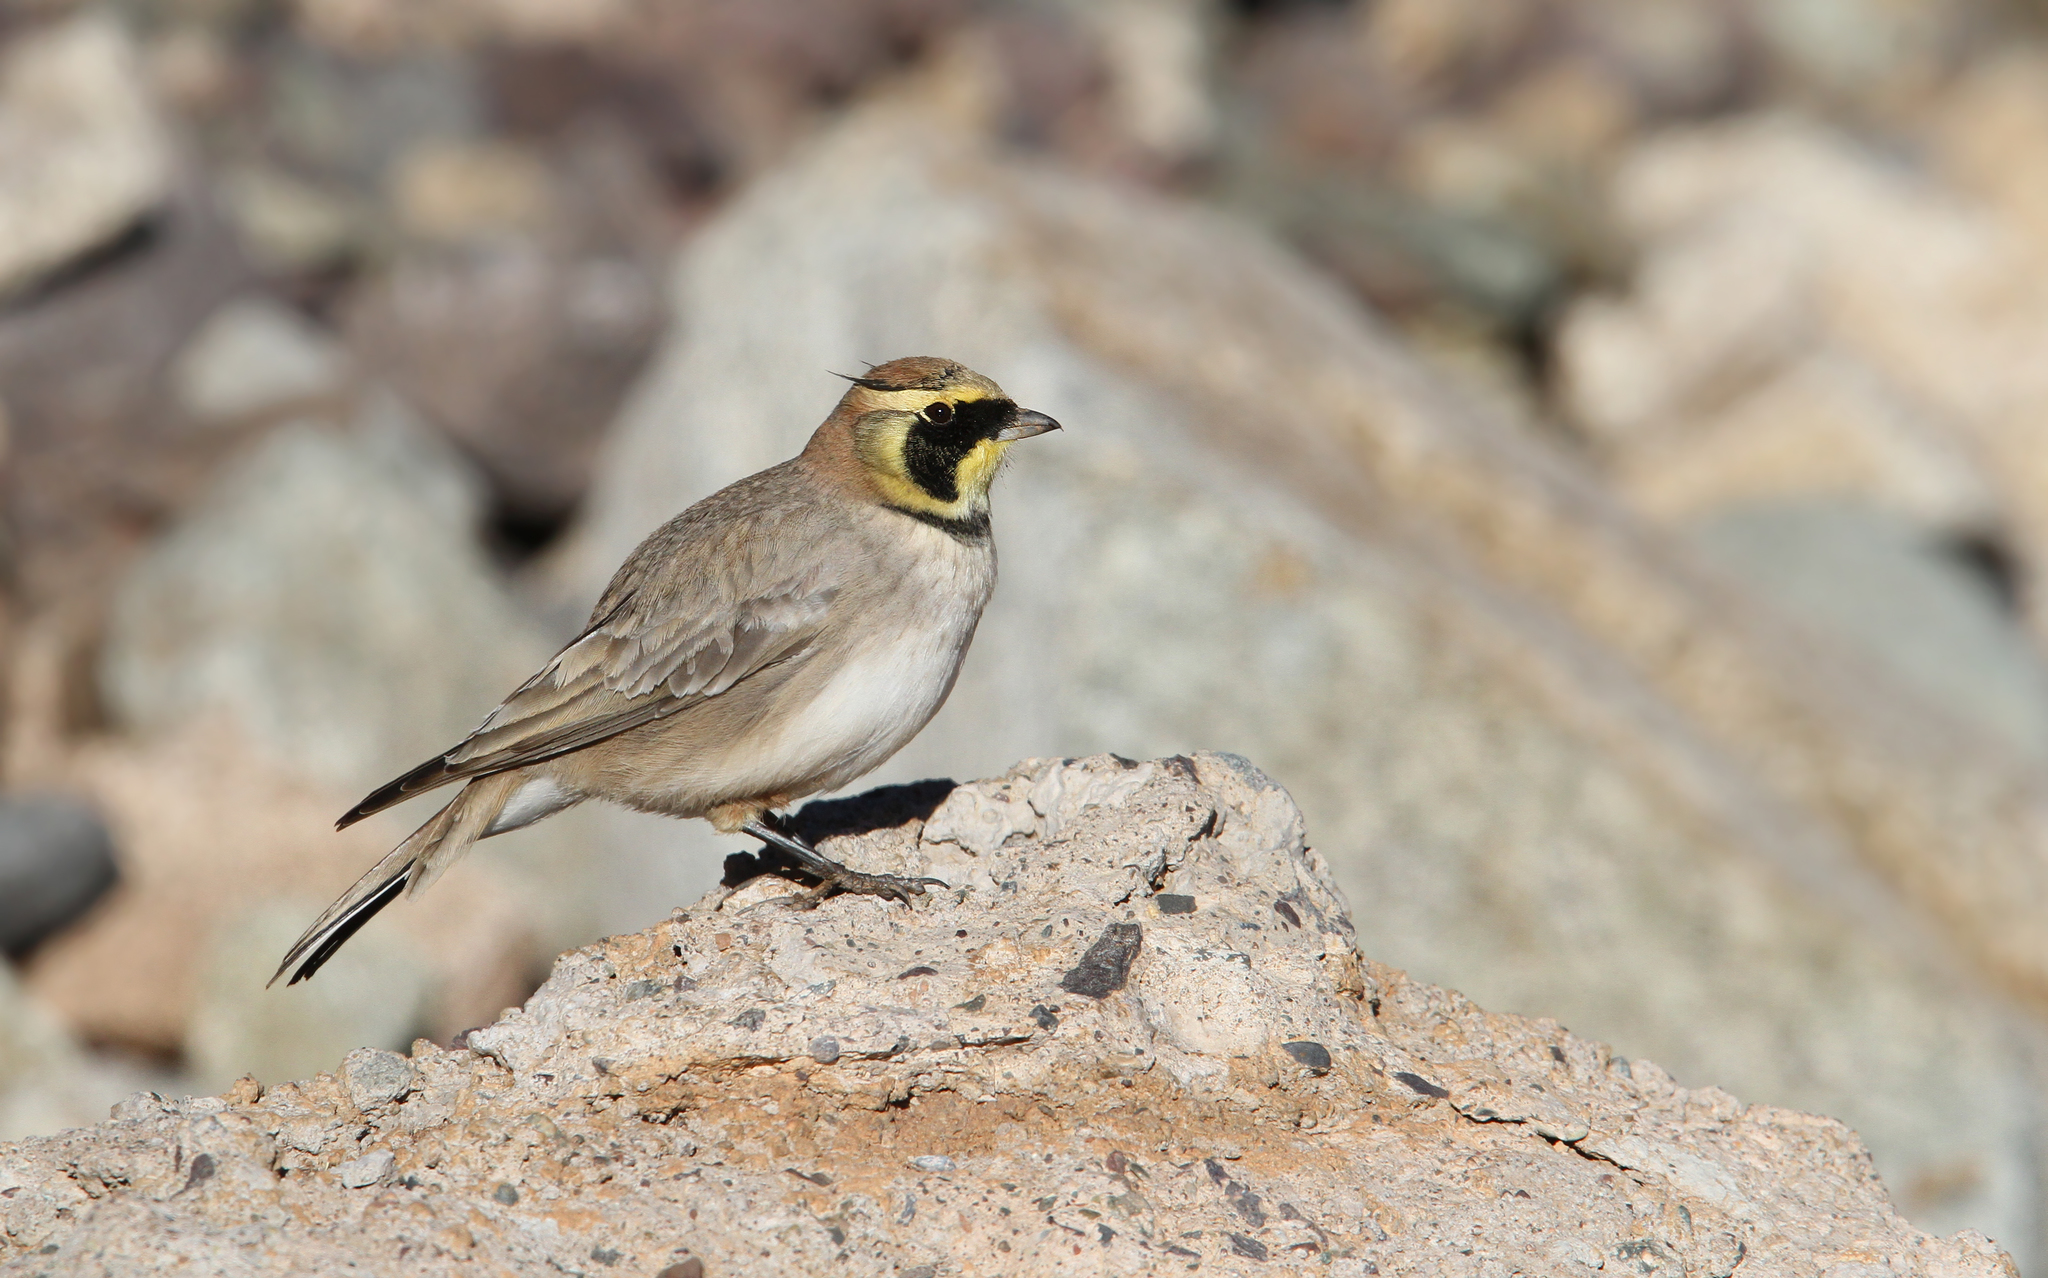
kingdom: Animalia
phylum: Chordata
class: Aves
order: Passeriformes
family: Alaudidae
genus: Eremophila
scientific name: Eremophila alpestris
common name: Horned lark
